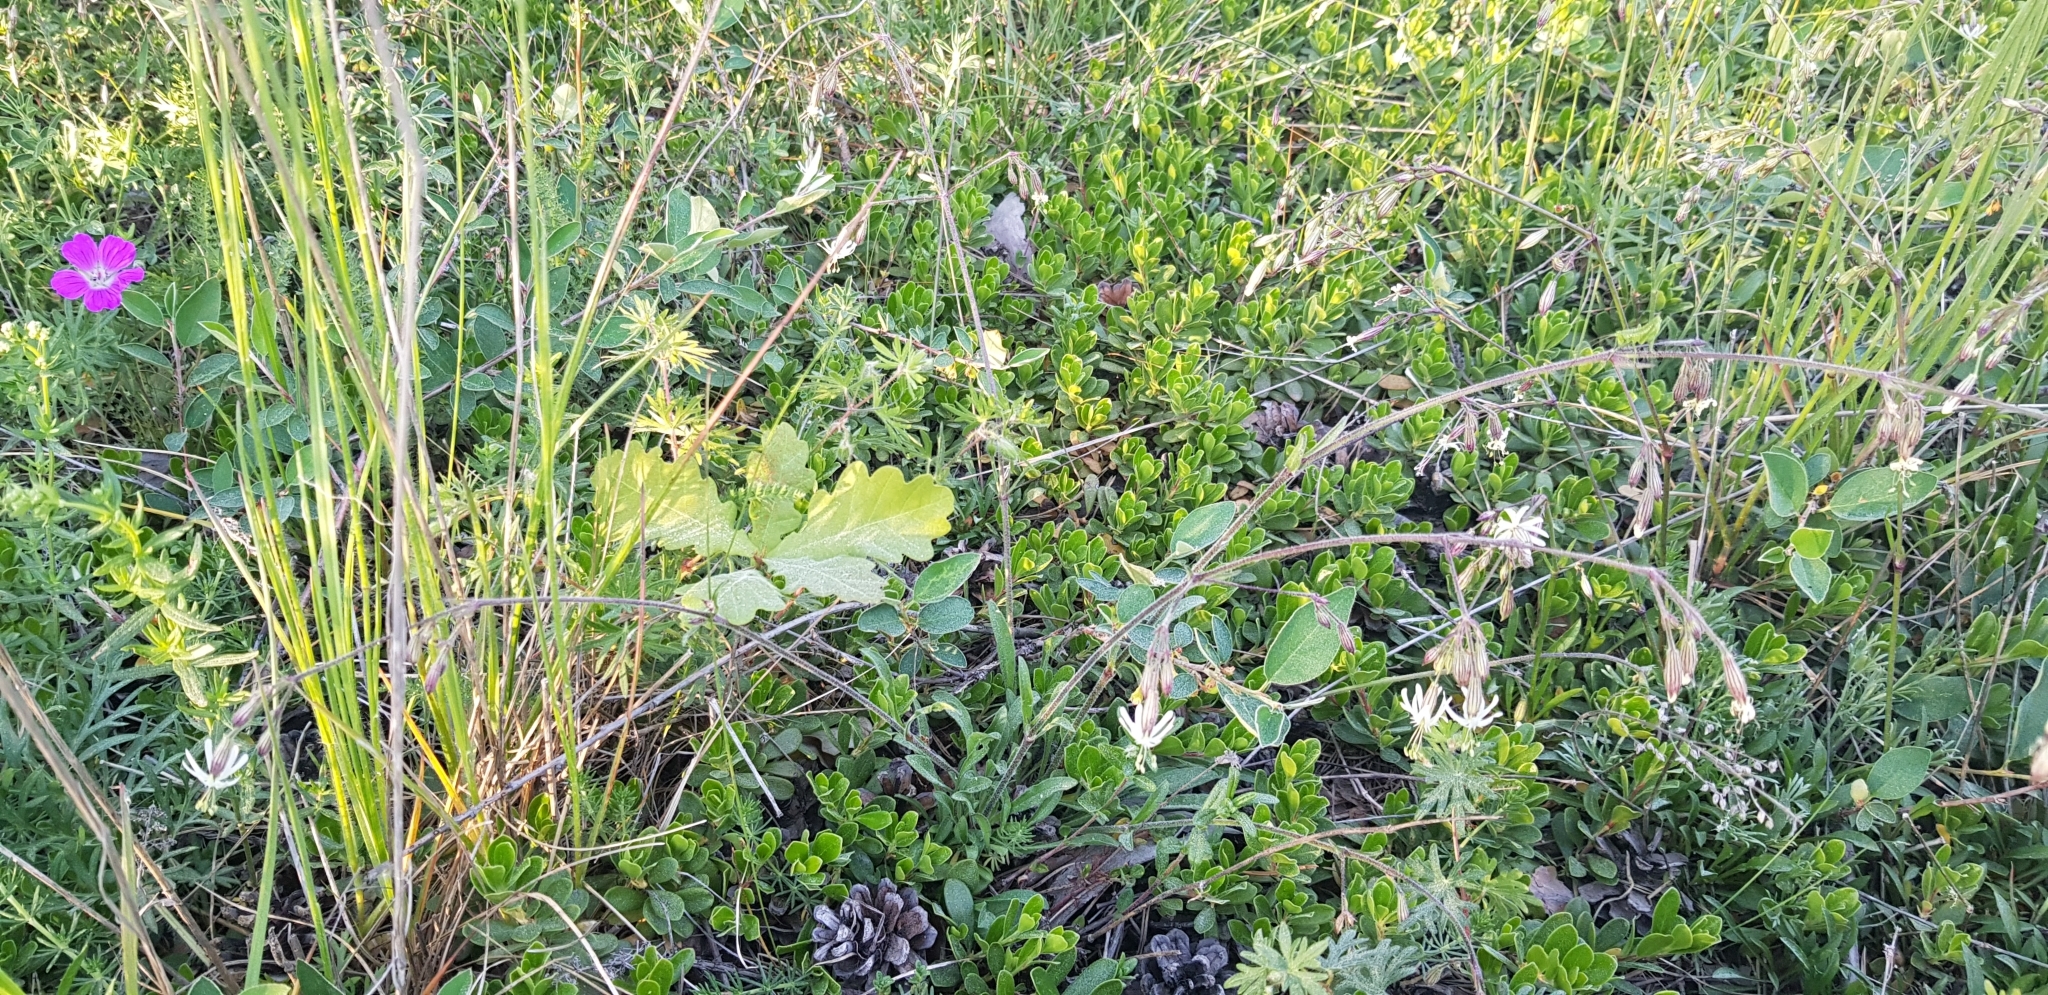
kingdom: Plantae
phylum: Tracheophyta
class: Magnoliopsida
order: Caryophyllales
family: Caryophyllaceae
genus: Silene
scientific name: Silene nutans
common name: Nottingham catchfly
